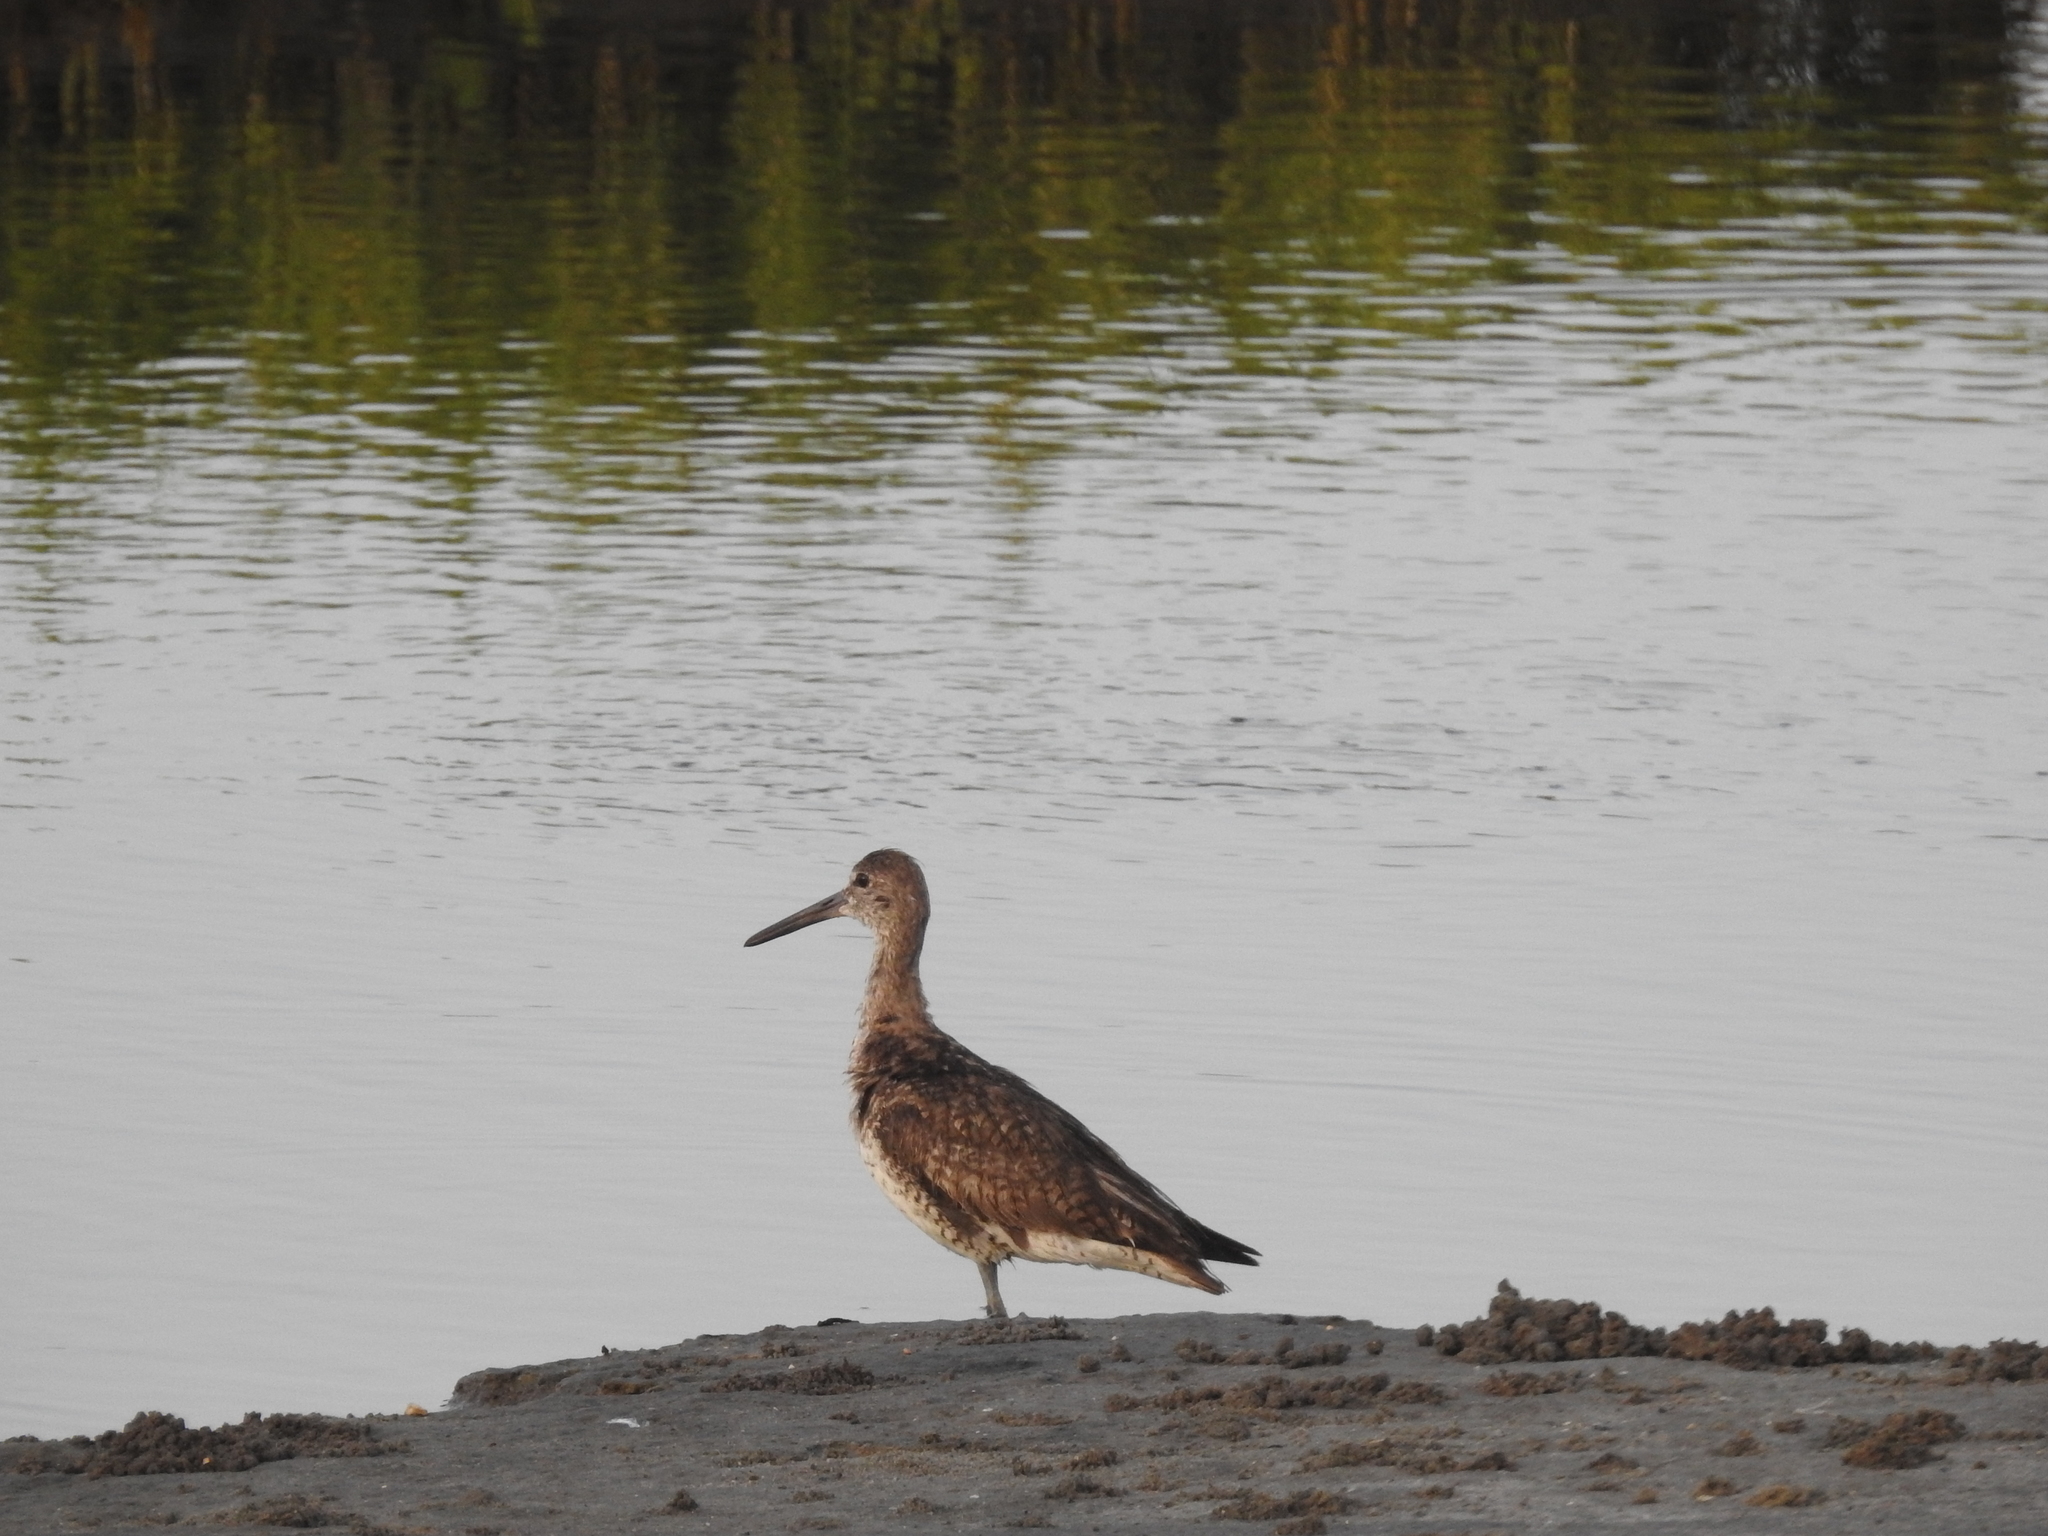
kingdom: Animalia
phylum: Chordata
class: Aves
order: Charadriiformes
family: Scolopacidae
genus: Tringa
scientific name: Tringa semipalmata
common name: Willet
